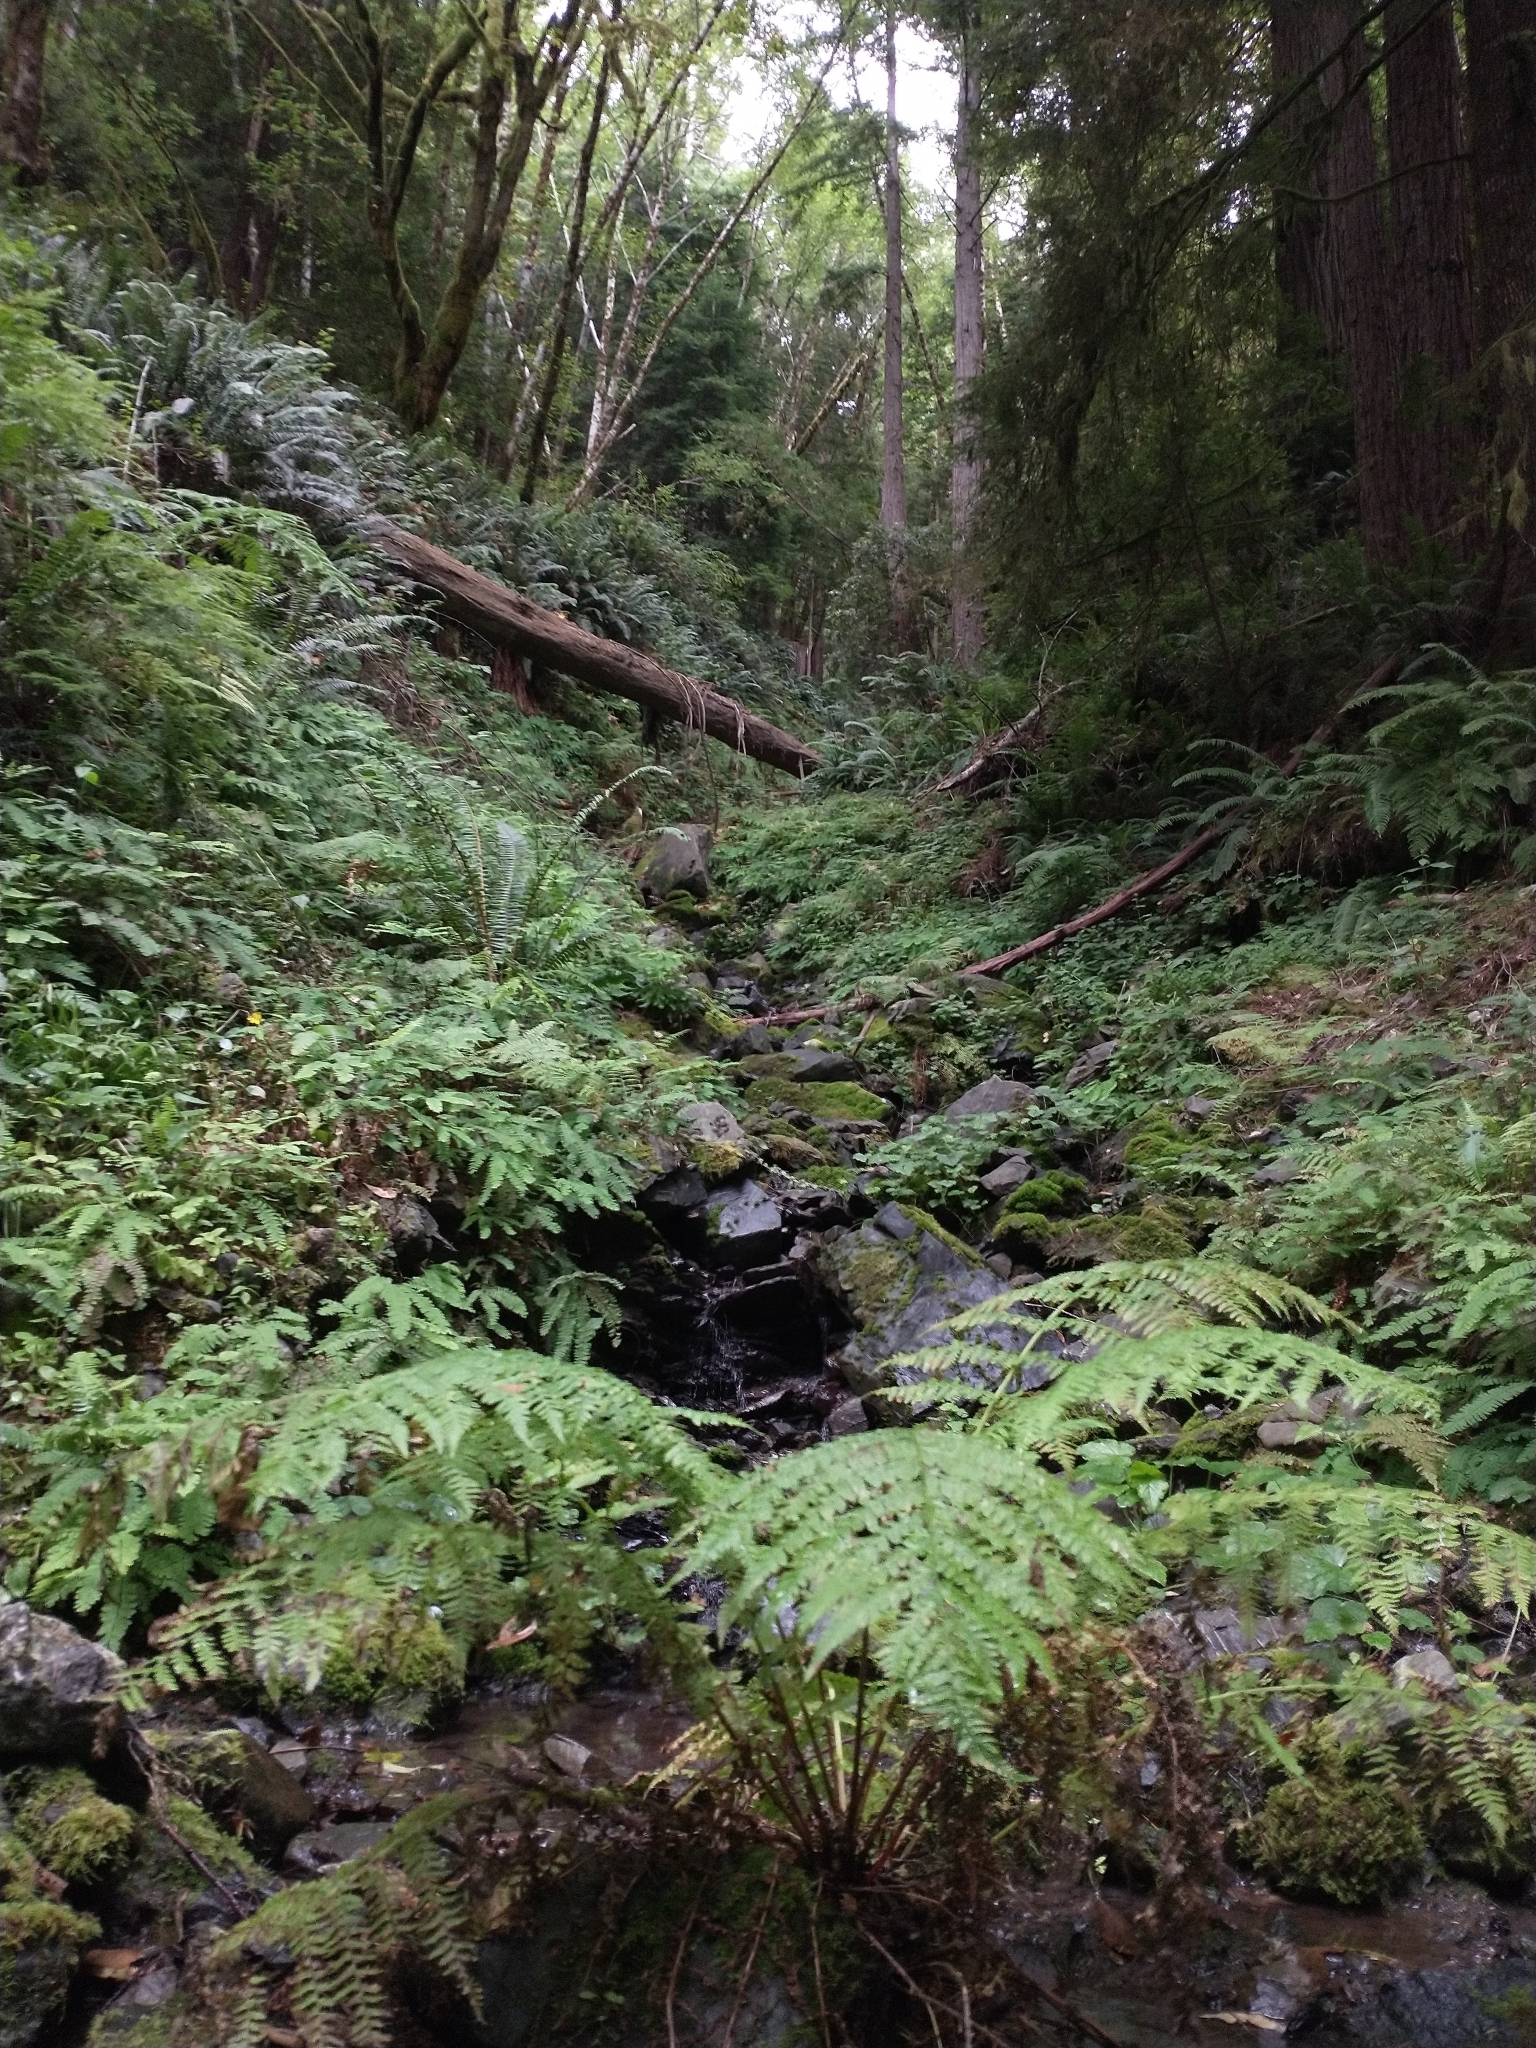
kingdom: Plantae
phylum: Tracheophyta
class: Polypodiopsida
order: Polypodiales
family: Athyriaceae
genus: Athyrium
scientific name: Athyrium cyclosorum
